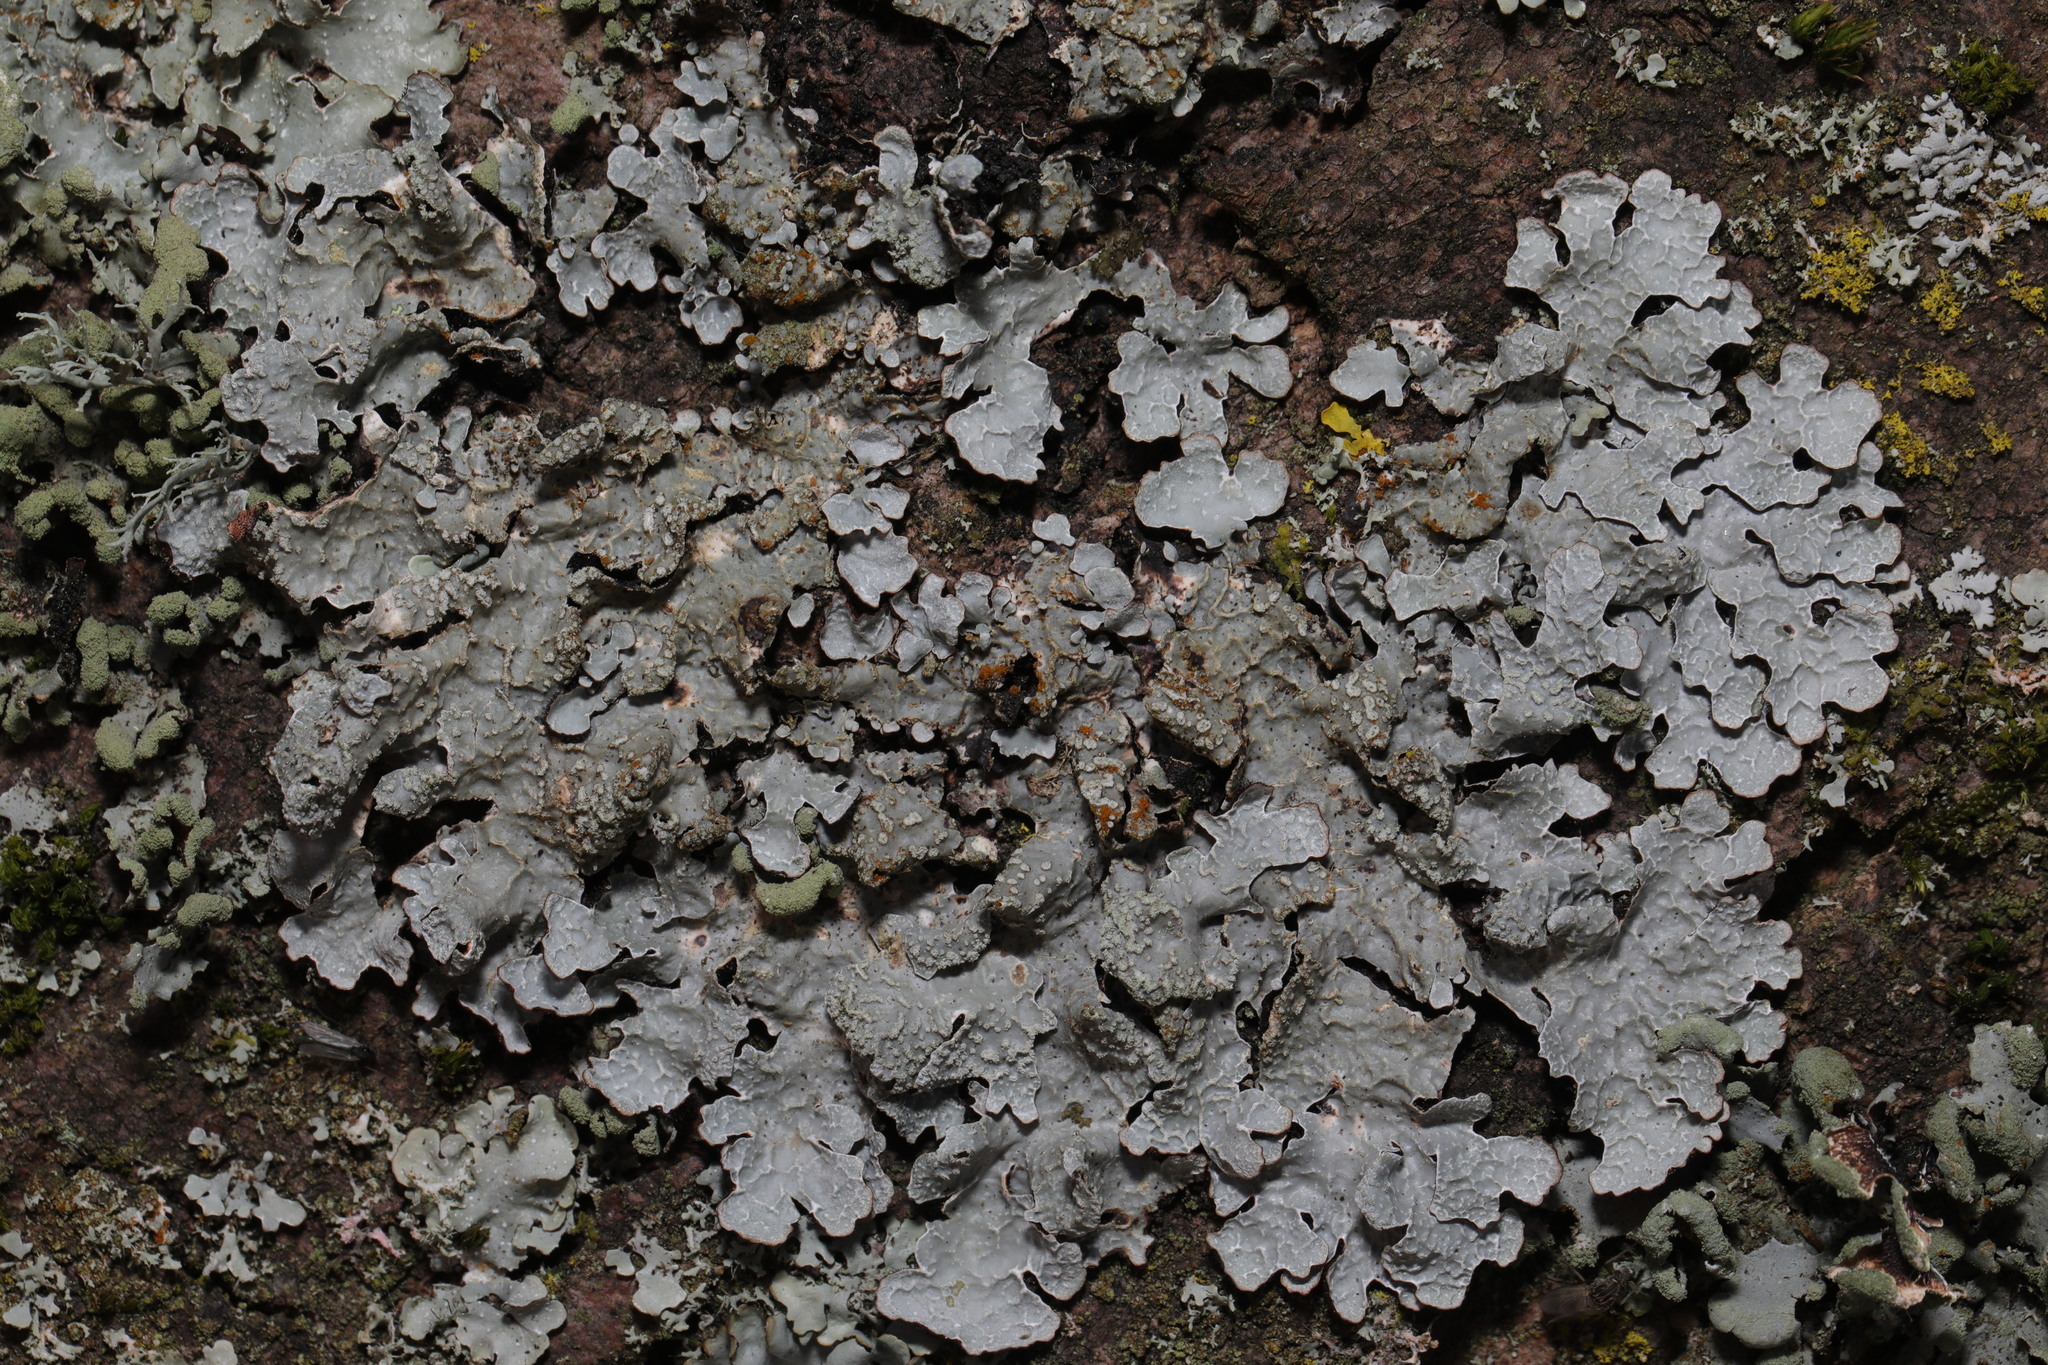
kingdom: Fungi
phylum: Ascomycota
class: Lecanoromycetes
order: Lecanorales
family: Parmeliaceae
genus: Parmelia
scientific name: Parmelia sulcata
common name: Netted shield lichen
